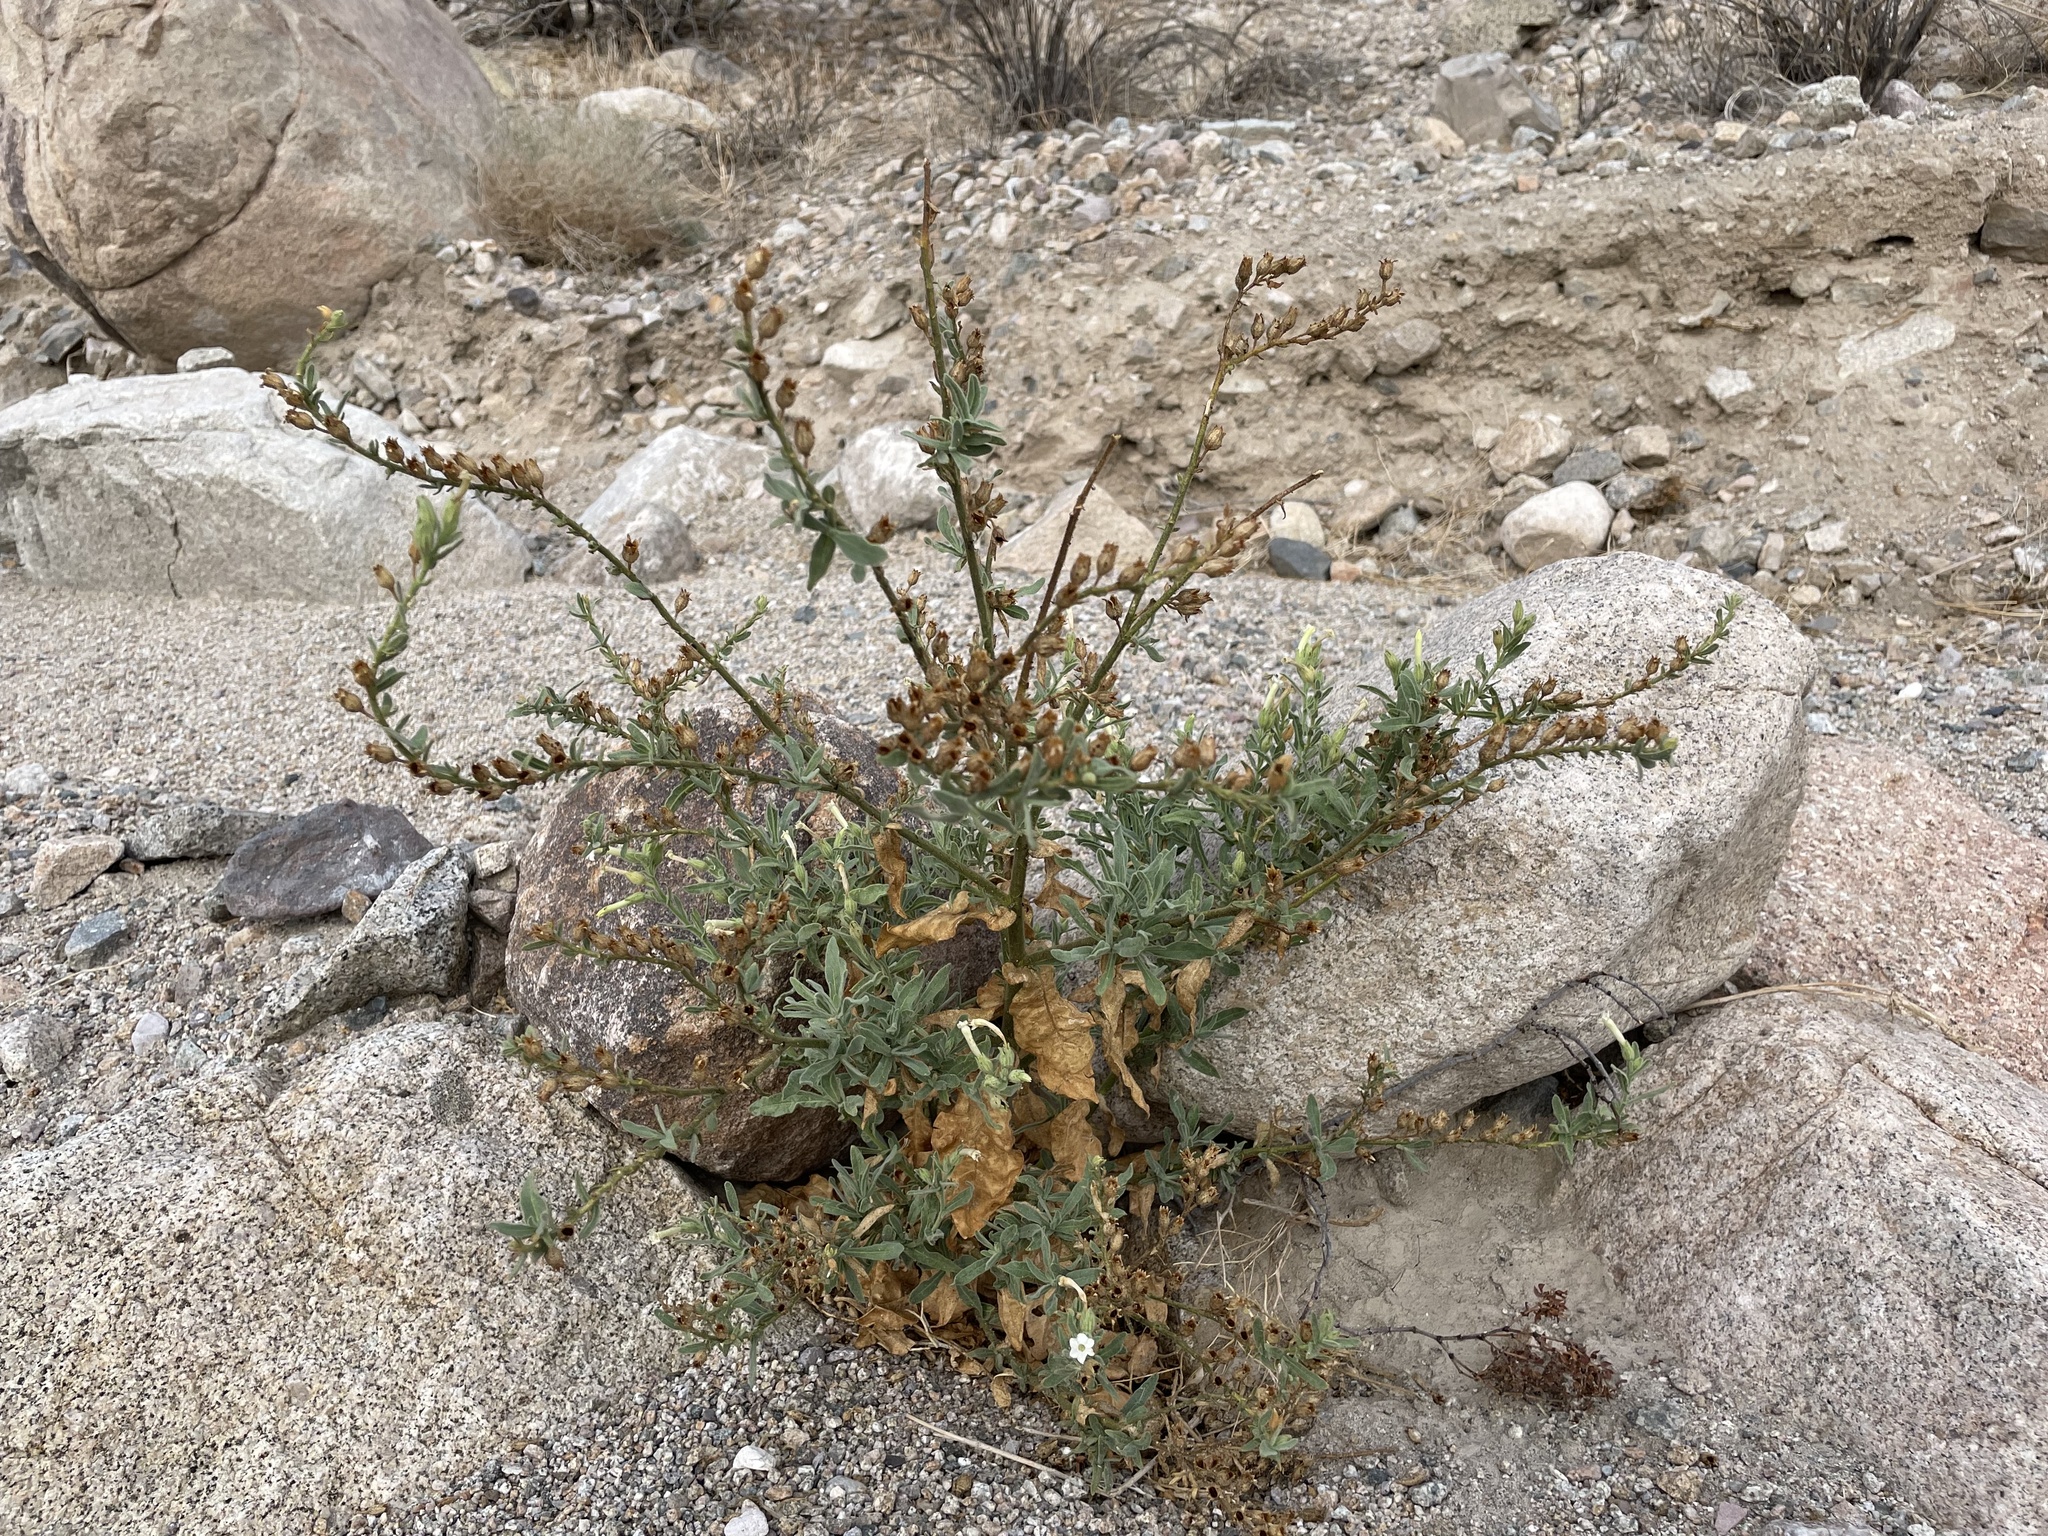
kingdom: Plantae
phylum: Tracheophyta
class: Magnoliopsida
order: Solanales
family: Solanaceae
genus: Nicotiana
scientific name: Nicotiana obtusifolia
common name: Desert tobacco
